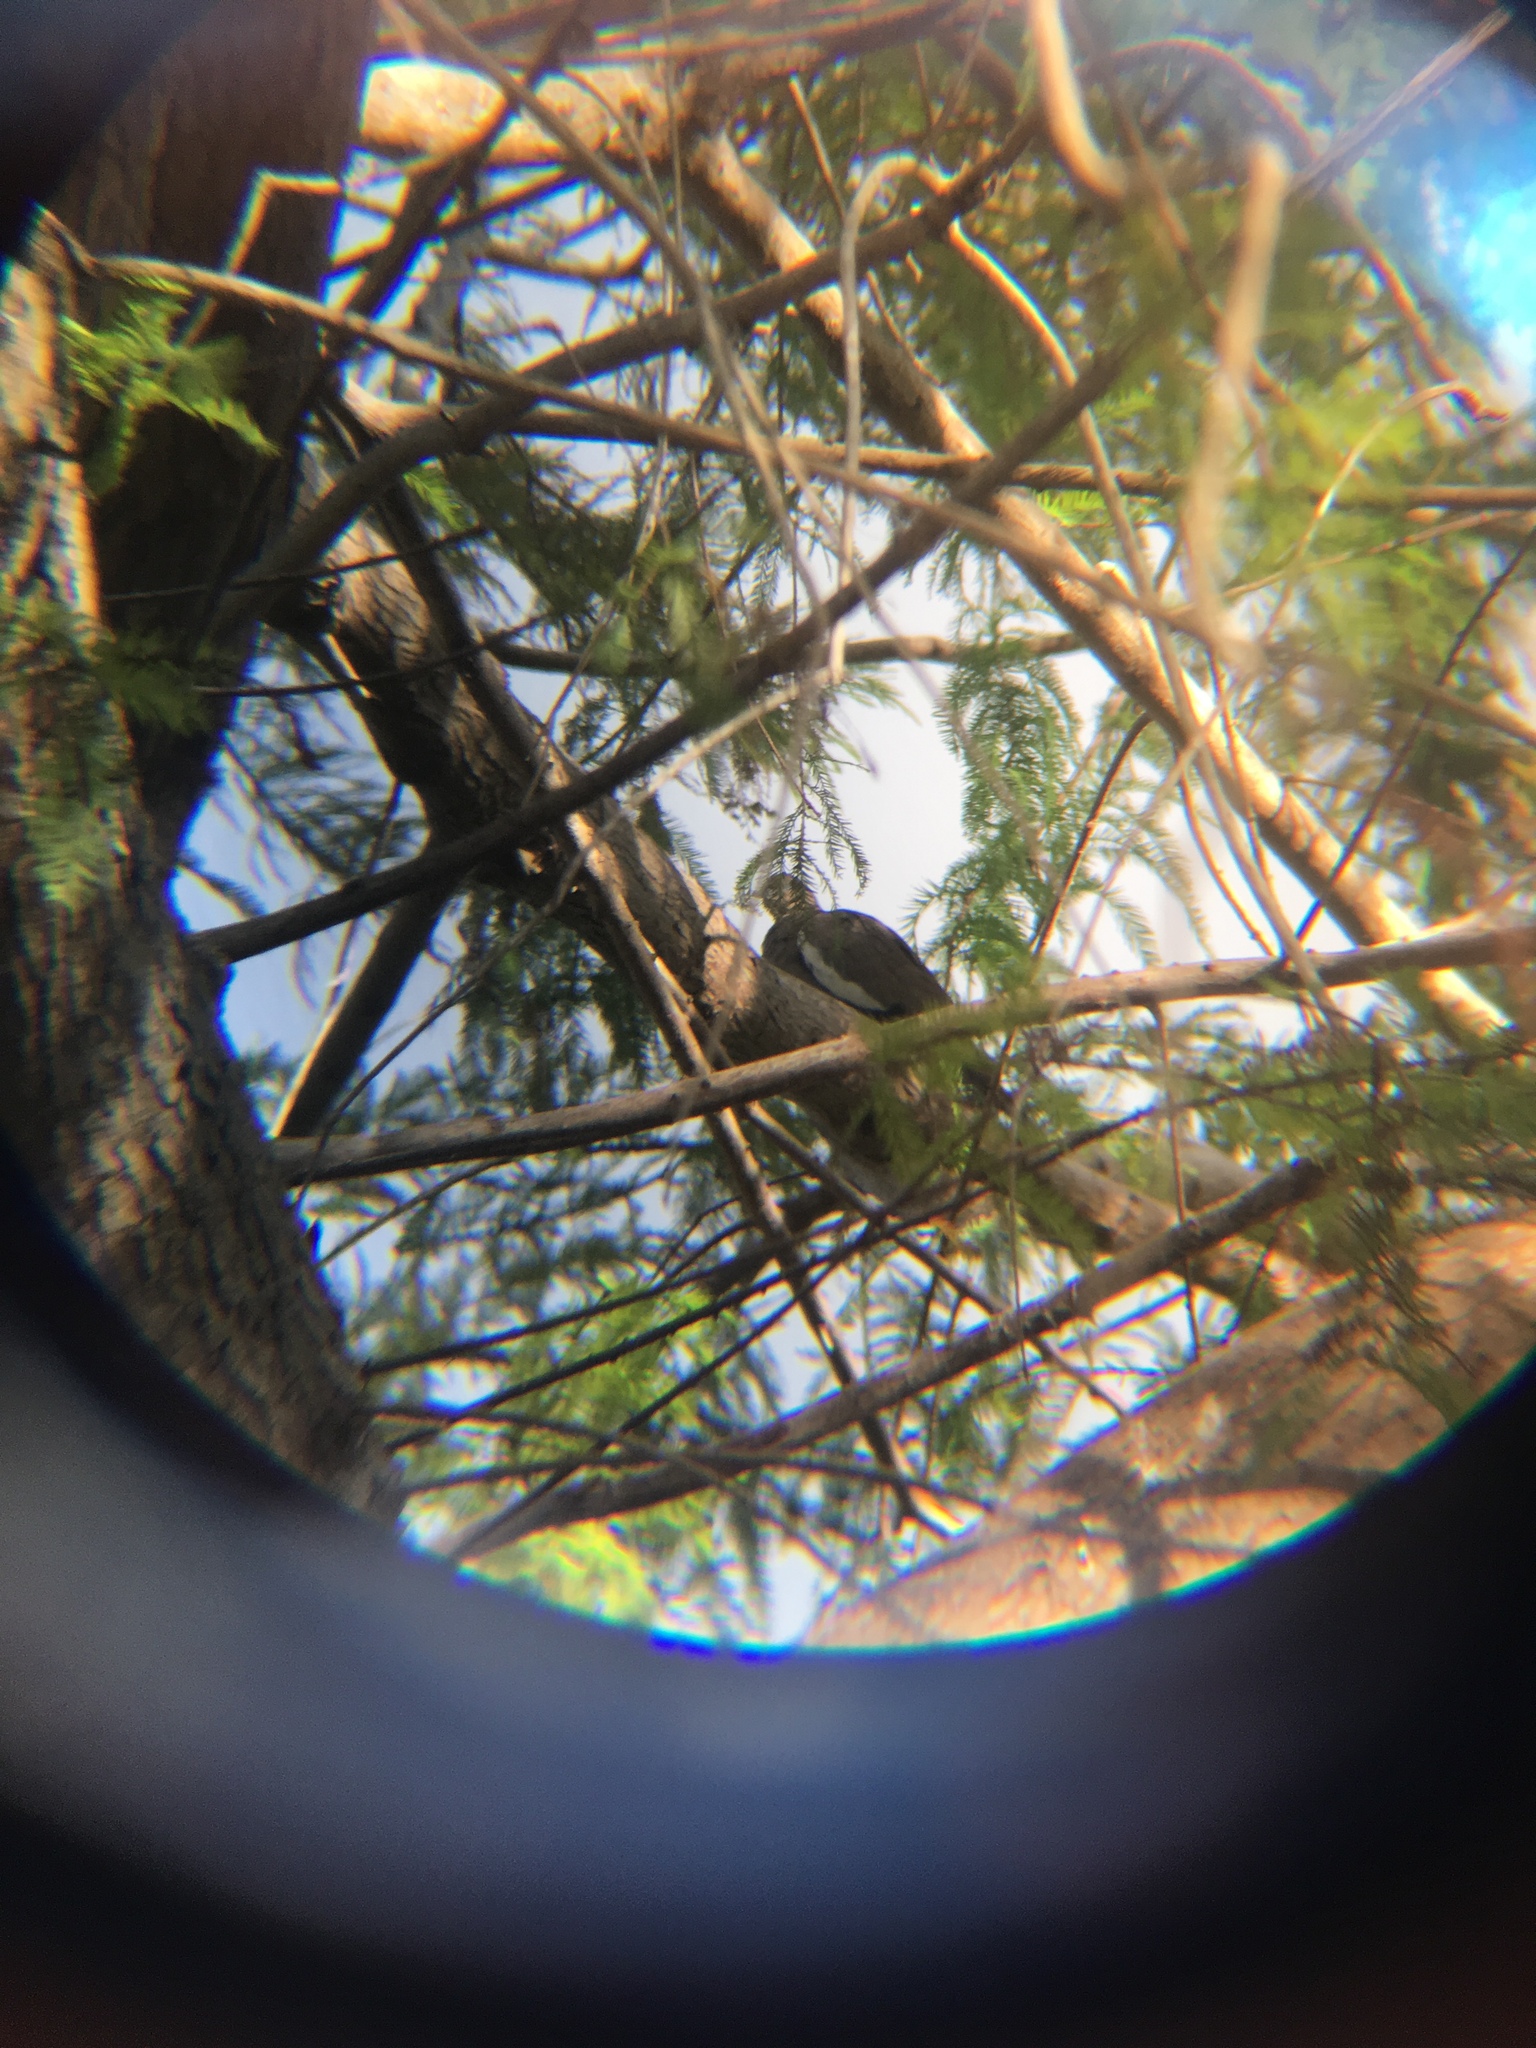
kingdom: Animalia
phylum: Chordata
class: Aves
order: Columbiformes
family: Columbidae
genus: Zenaida
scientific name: Zenaida asiatica
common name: White-winged dove
